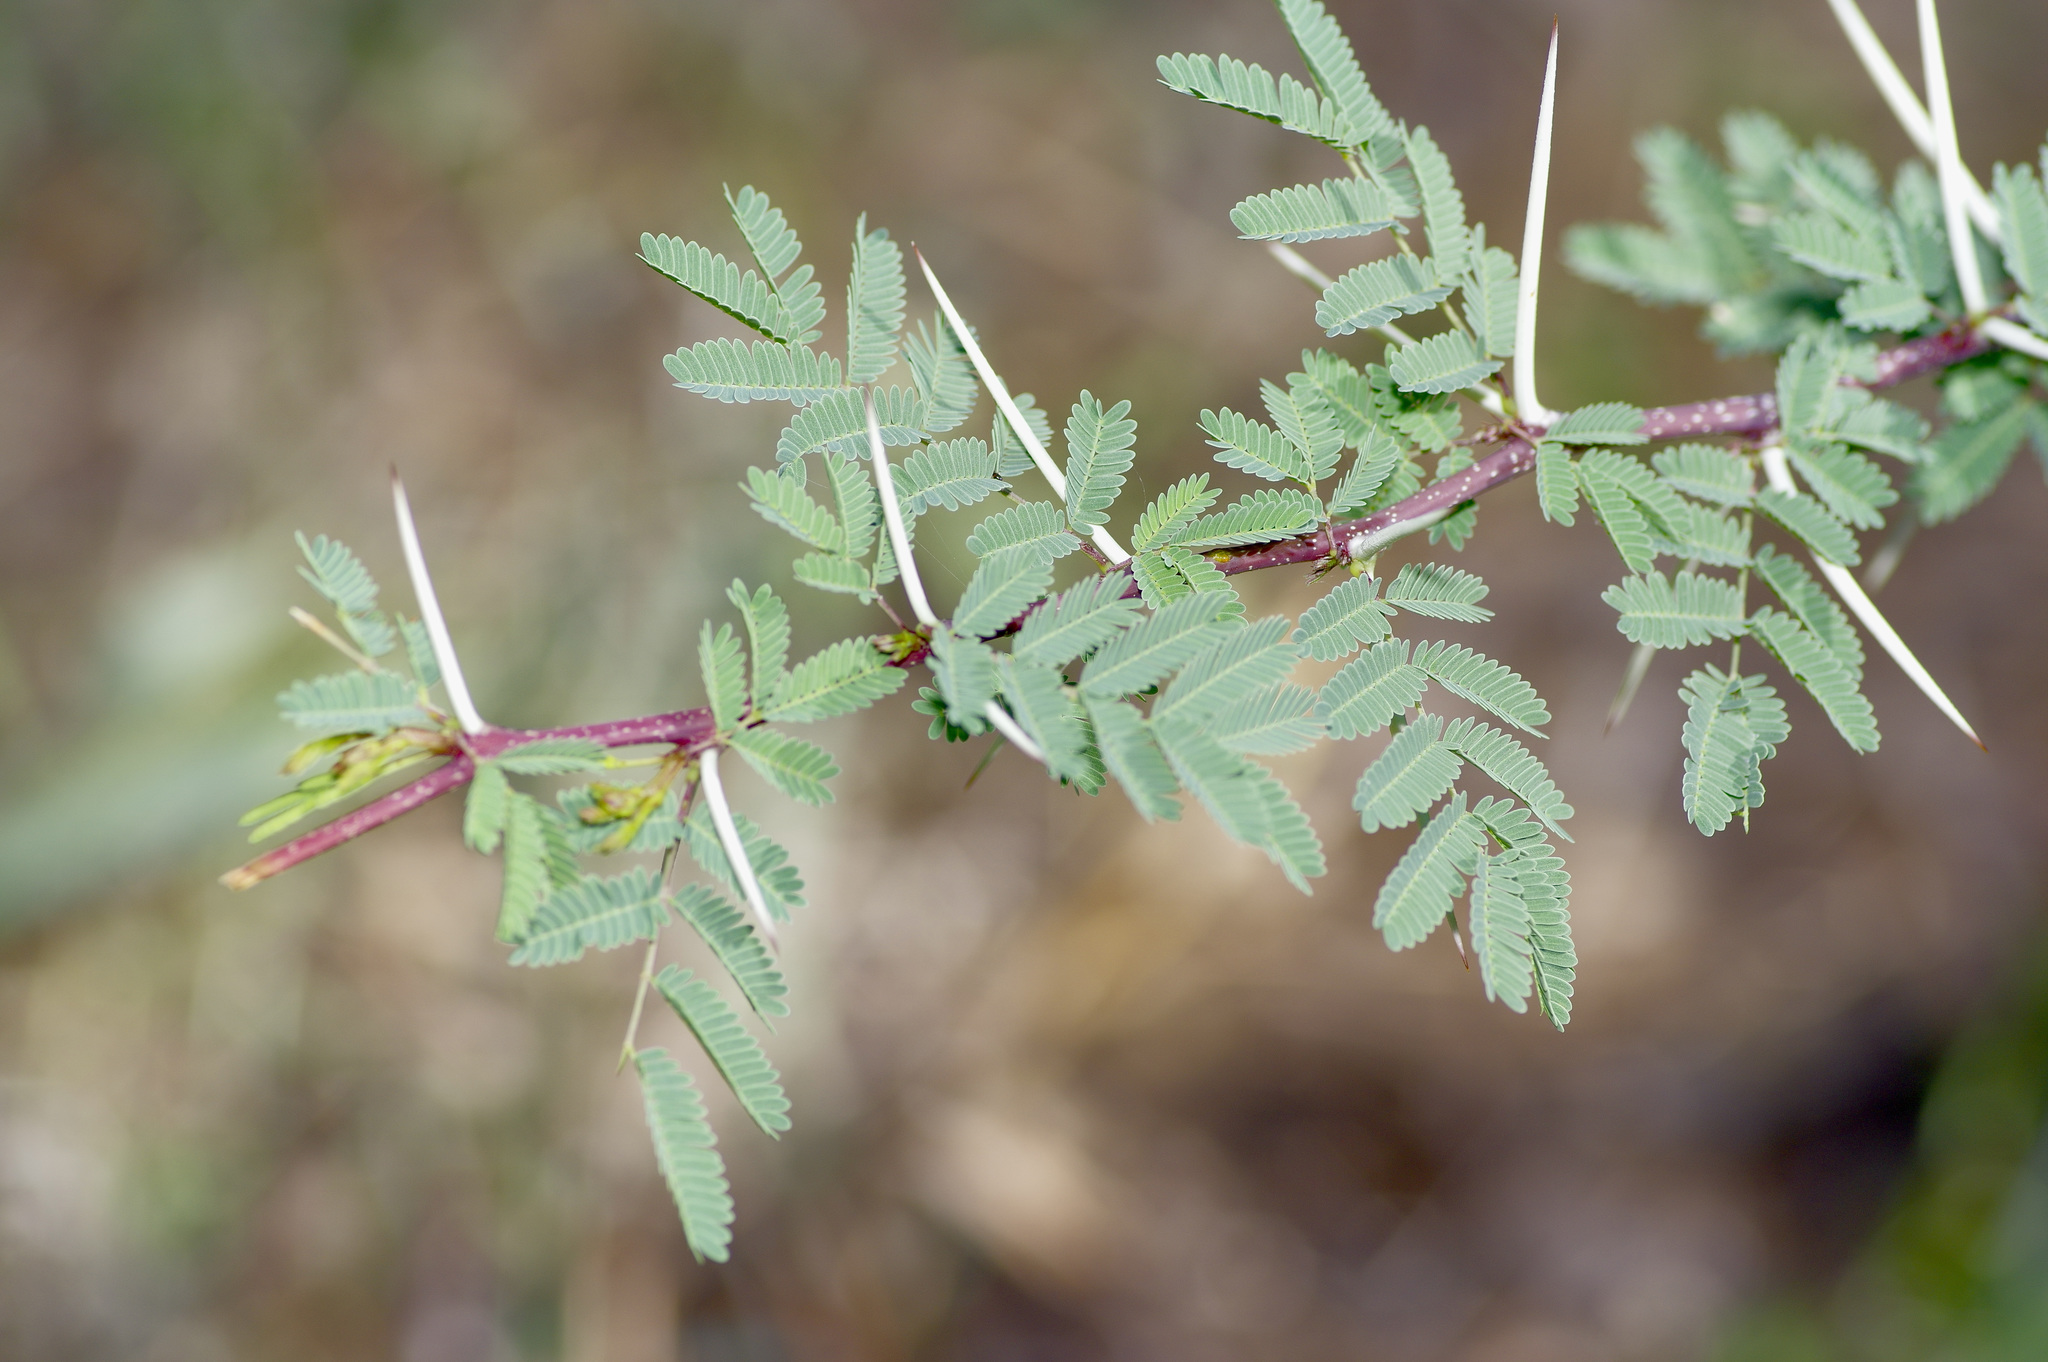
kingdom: Plantae
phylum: Tracheophyta
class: Magnoliopsida
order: Fabales
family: Fabaceae
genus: Vachellia
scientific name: Vachellia farnesiana
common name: Sweet acacia
